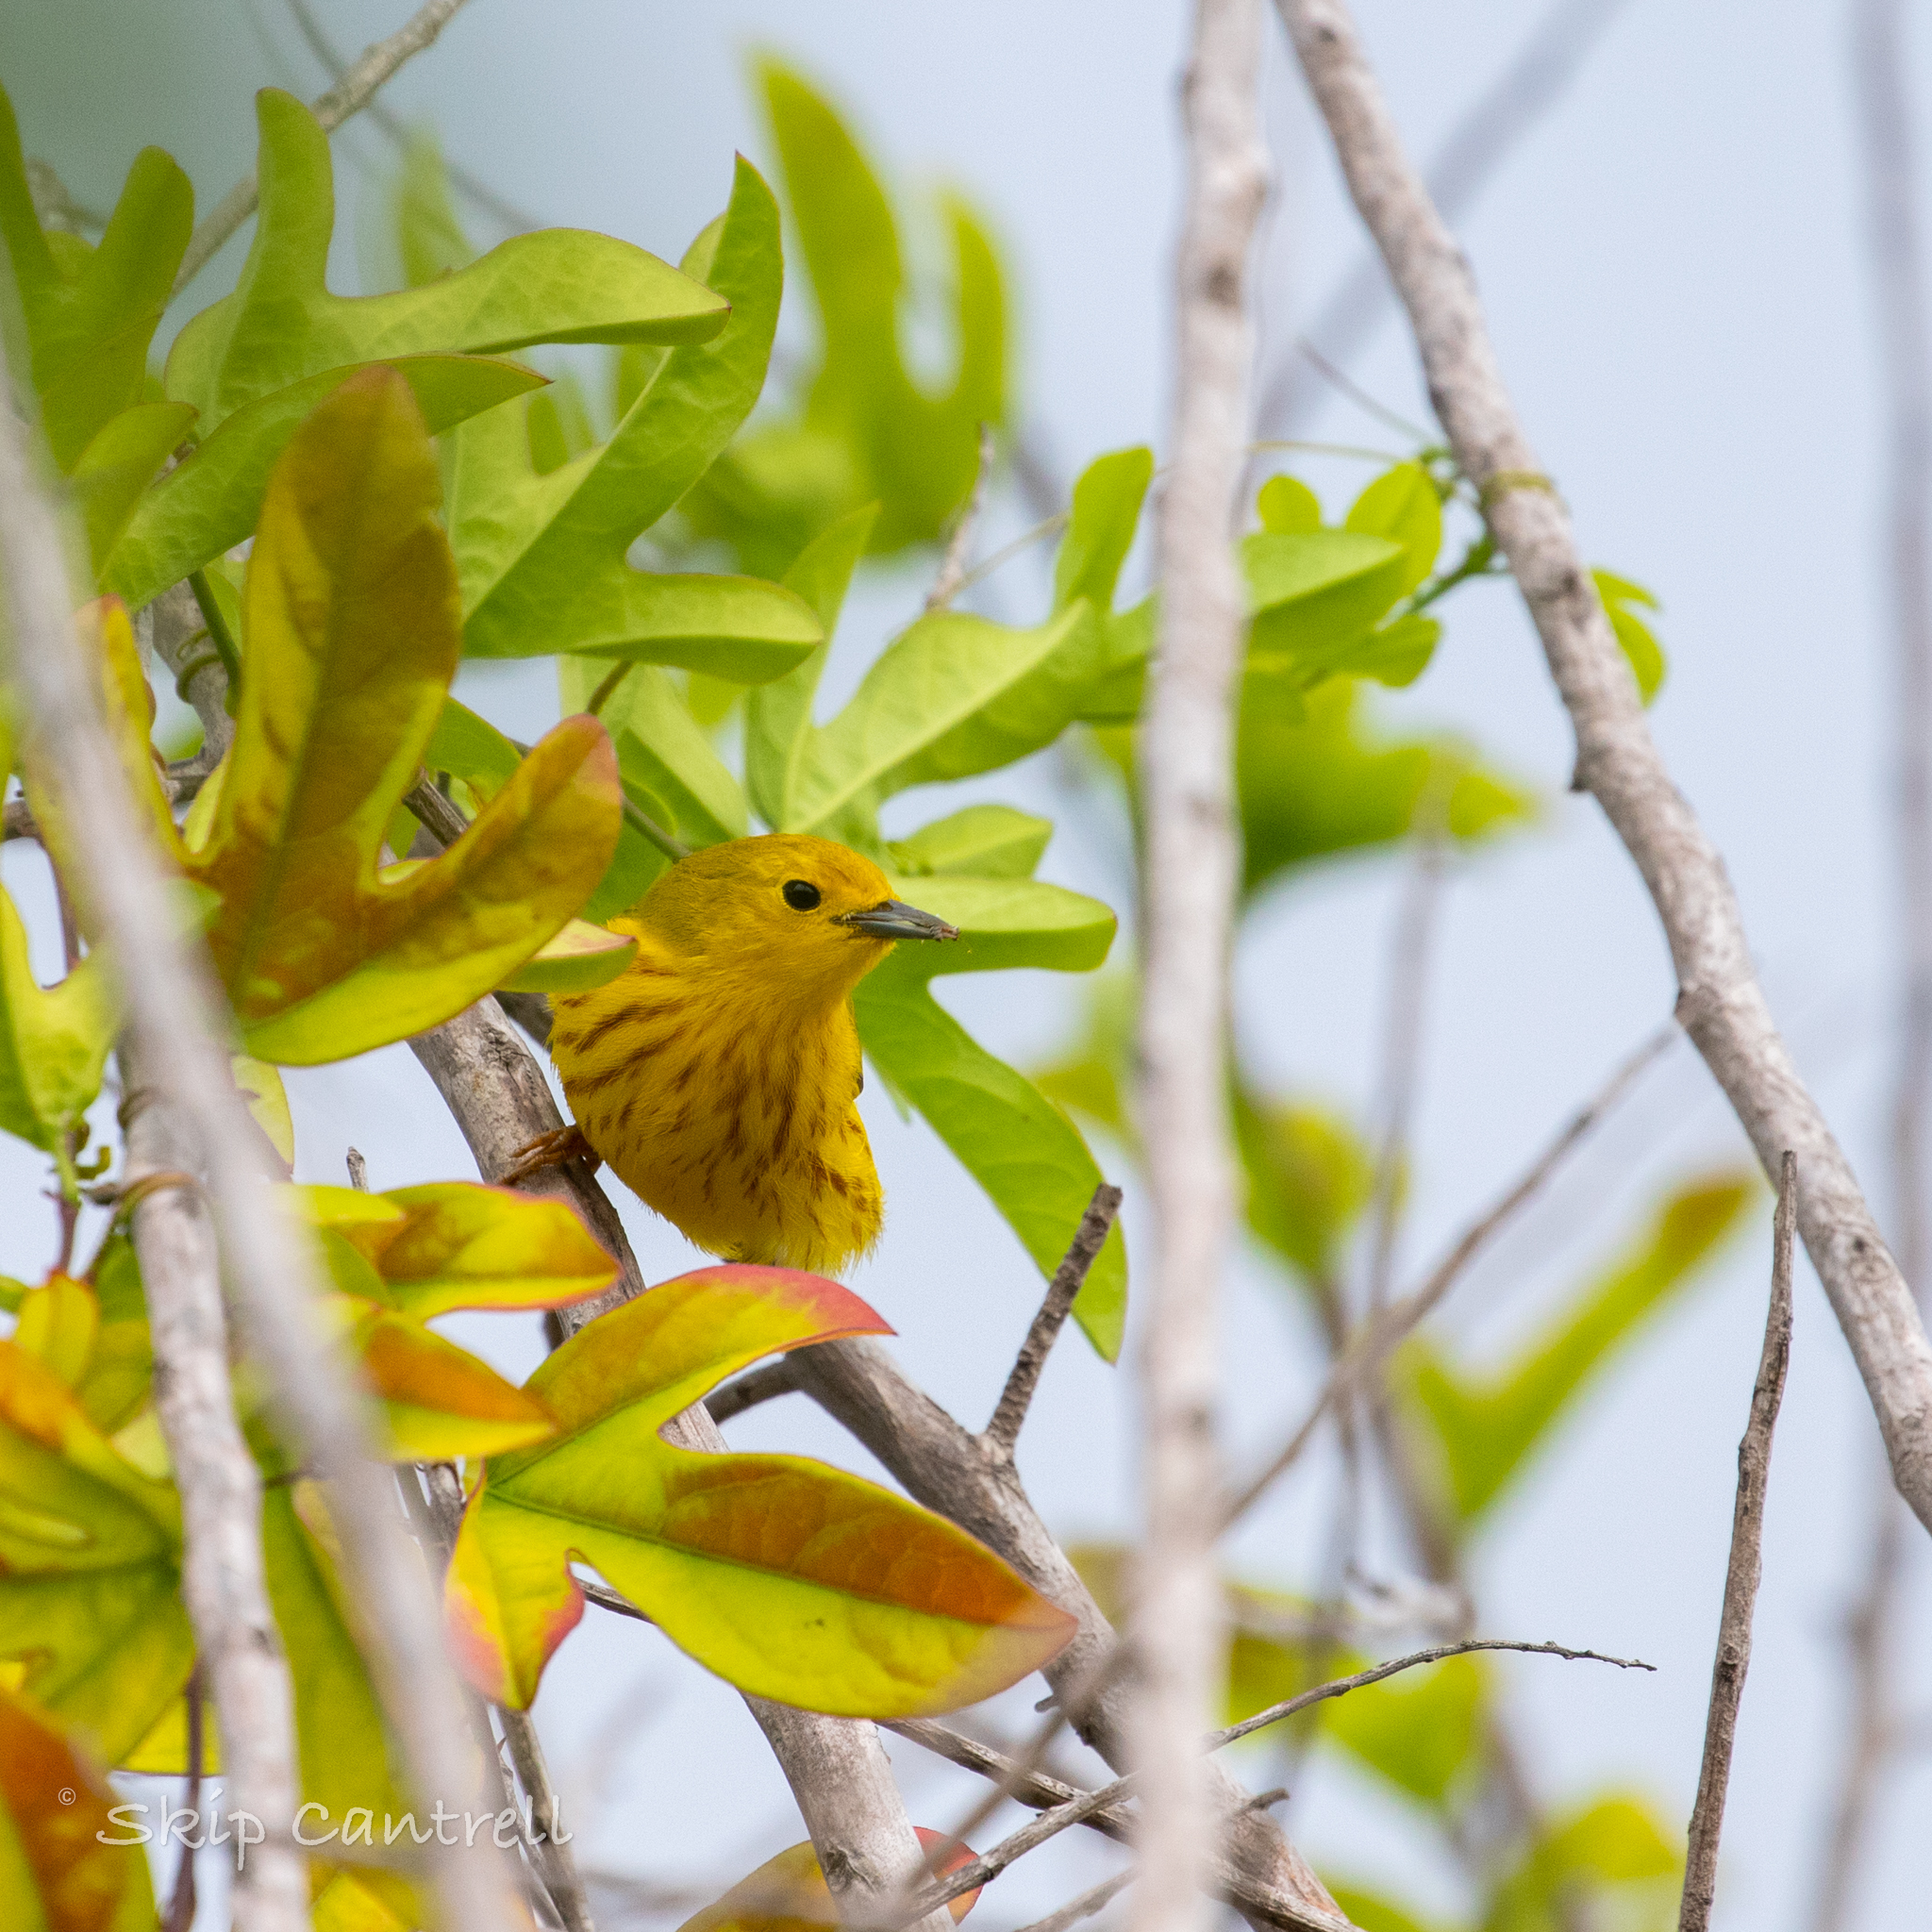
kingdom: Animalia
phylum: Chordata
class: Aves
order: Passeriformes
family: Parulidae
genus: Setophaga
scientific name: Setophaga petechia
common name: Yellow warbler
